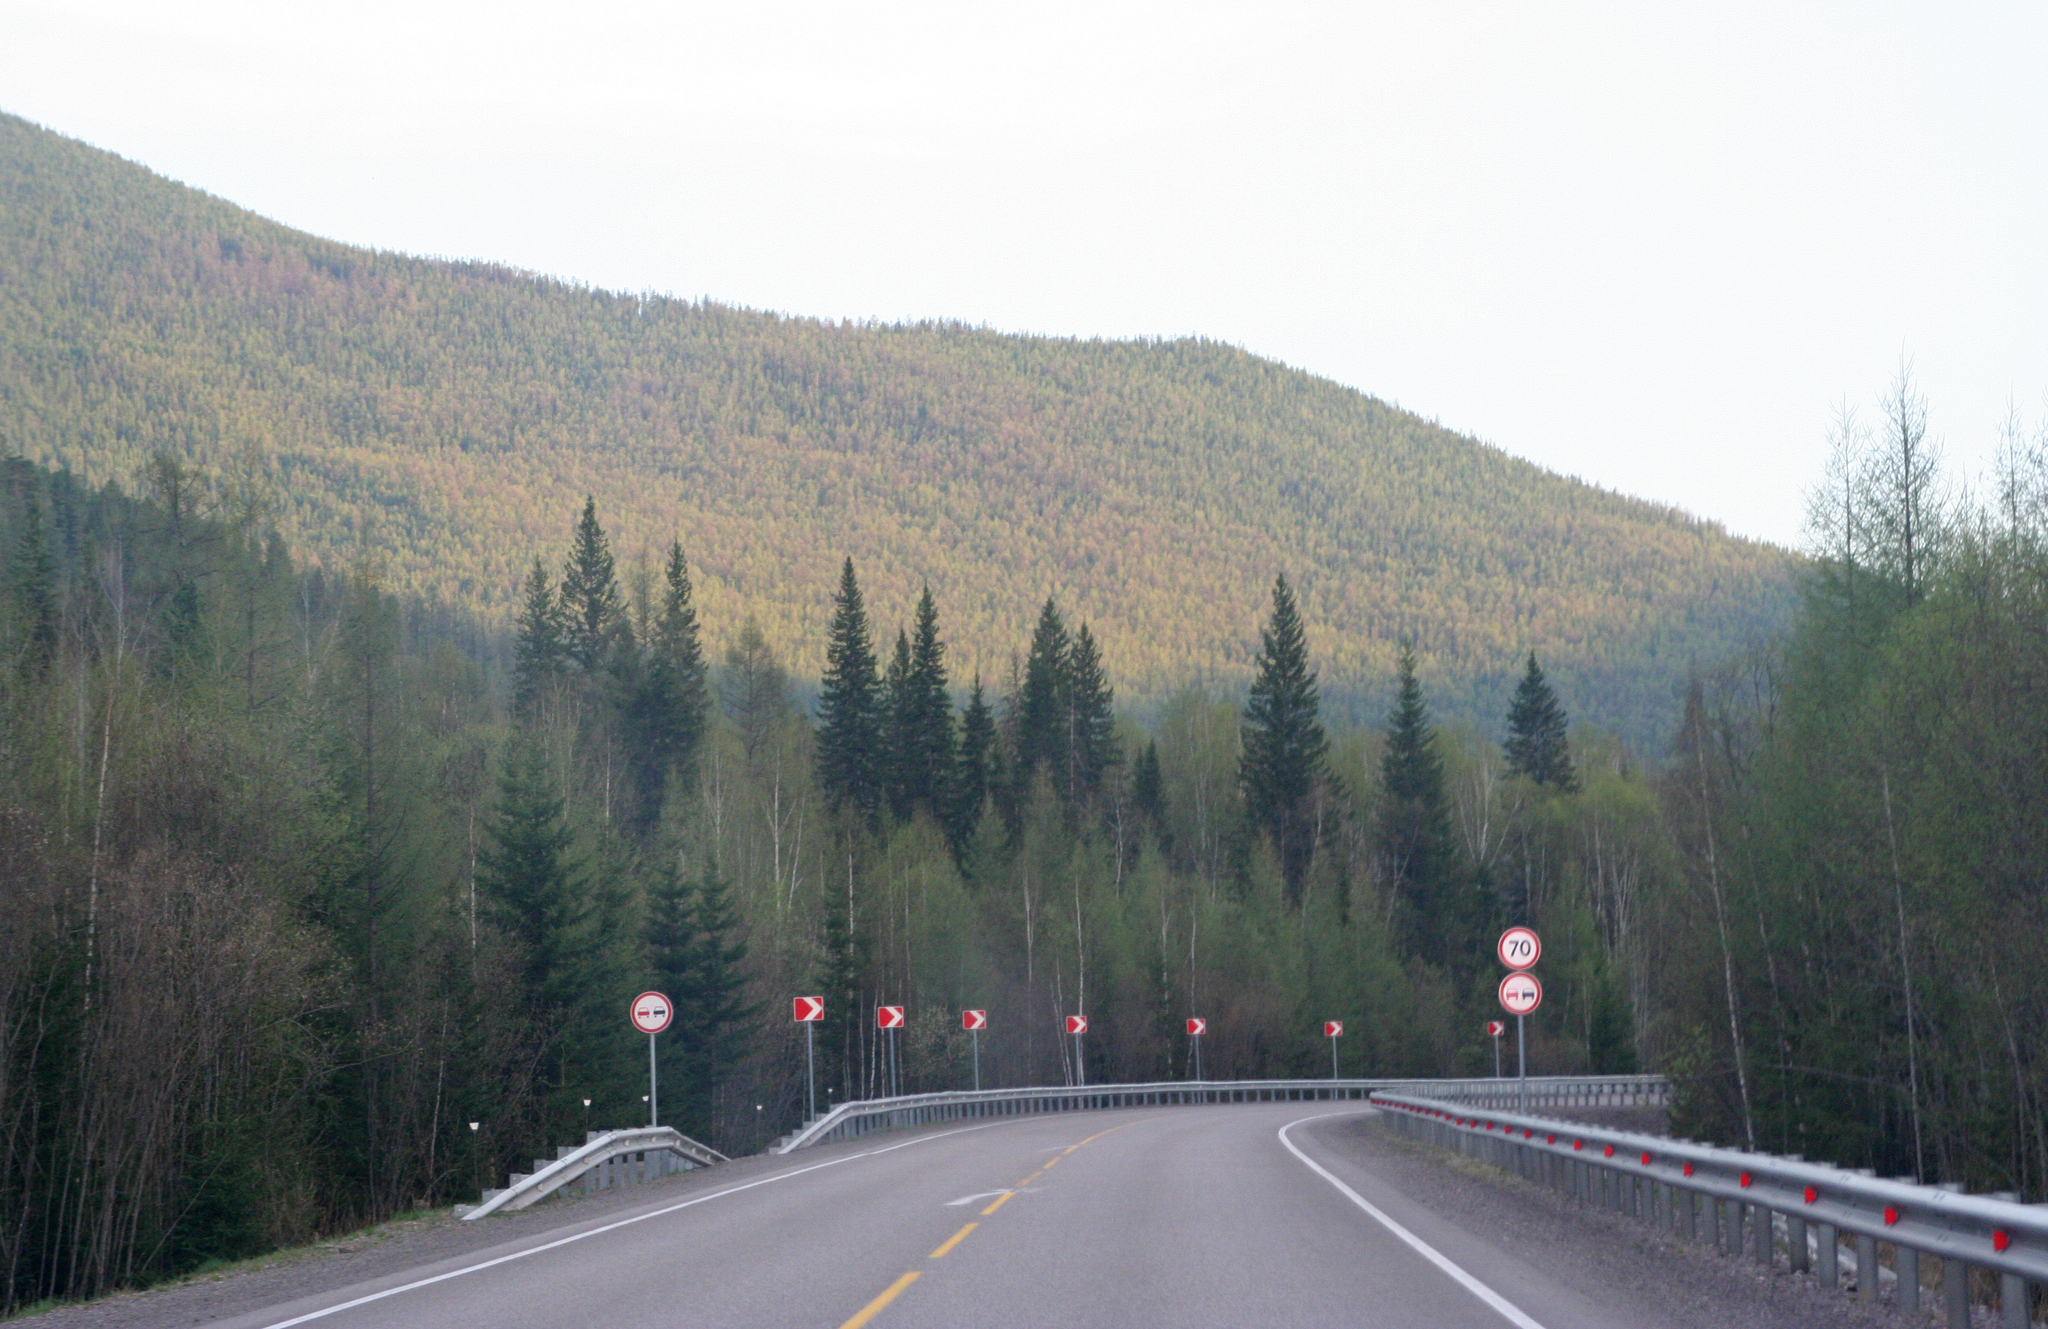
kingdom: Plantae
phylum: Tracheophyta
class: Pinopsida
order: Pinales
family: Pinaceae
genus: Picea
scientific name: Picea obovata
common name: Siberian spruce
